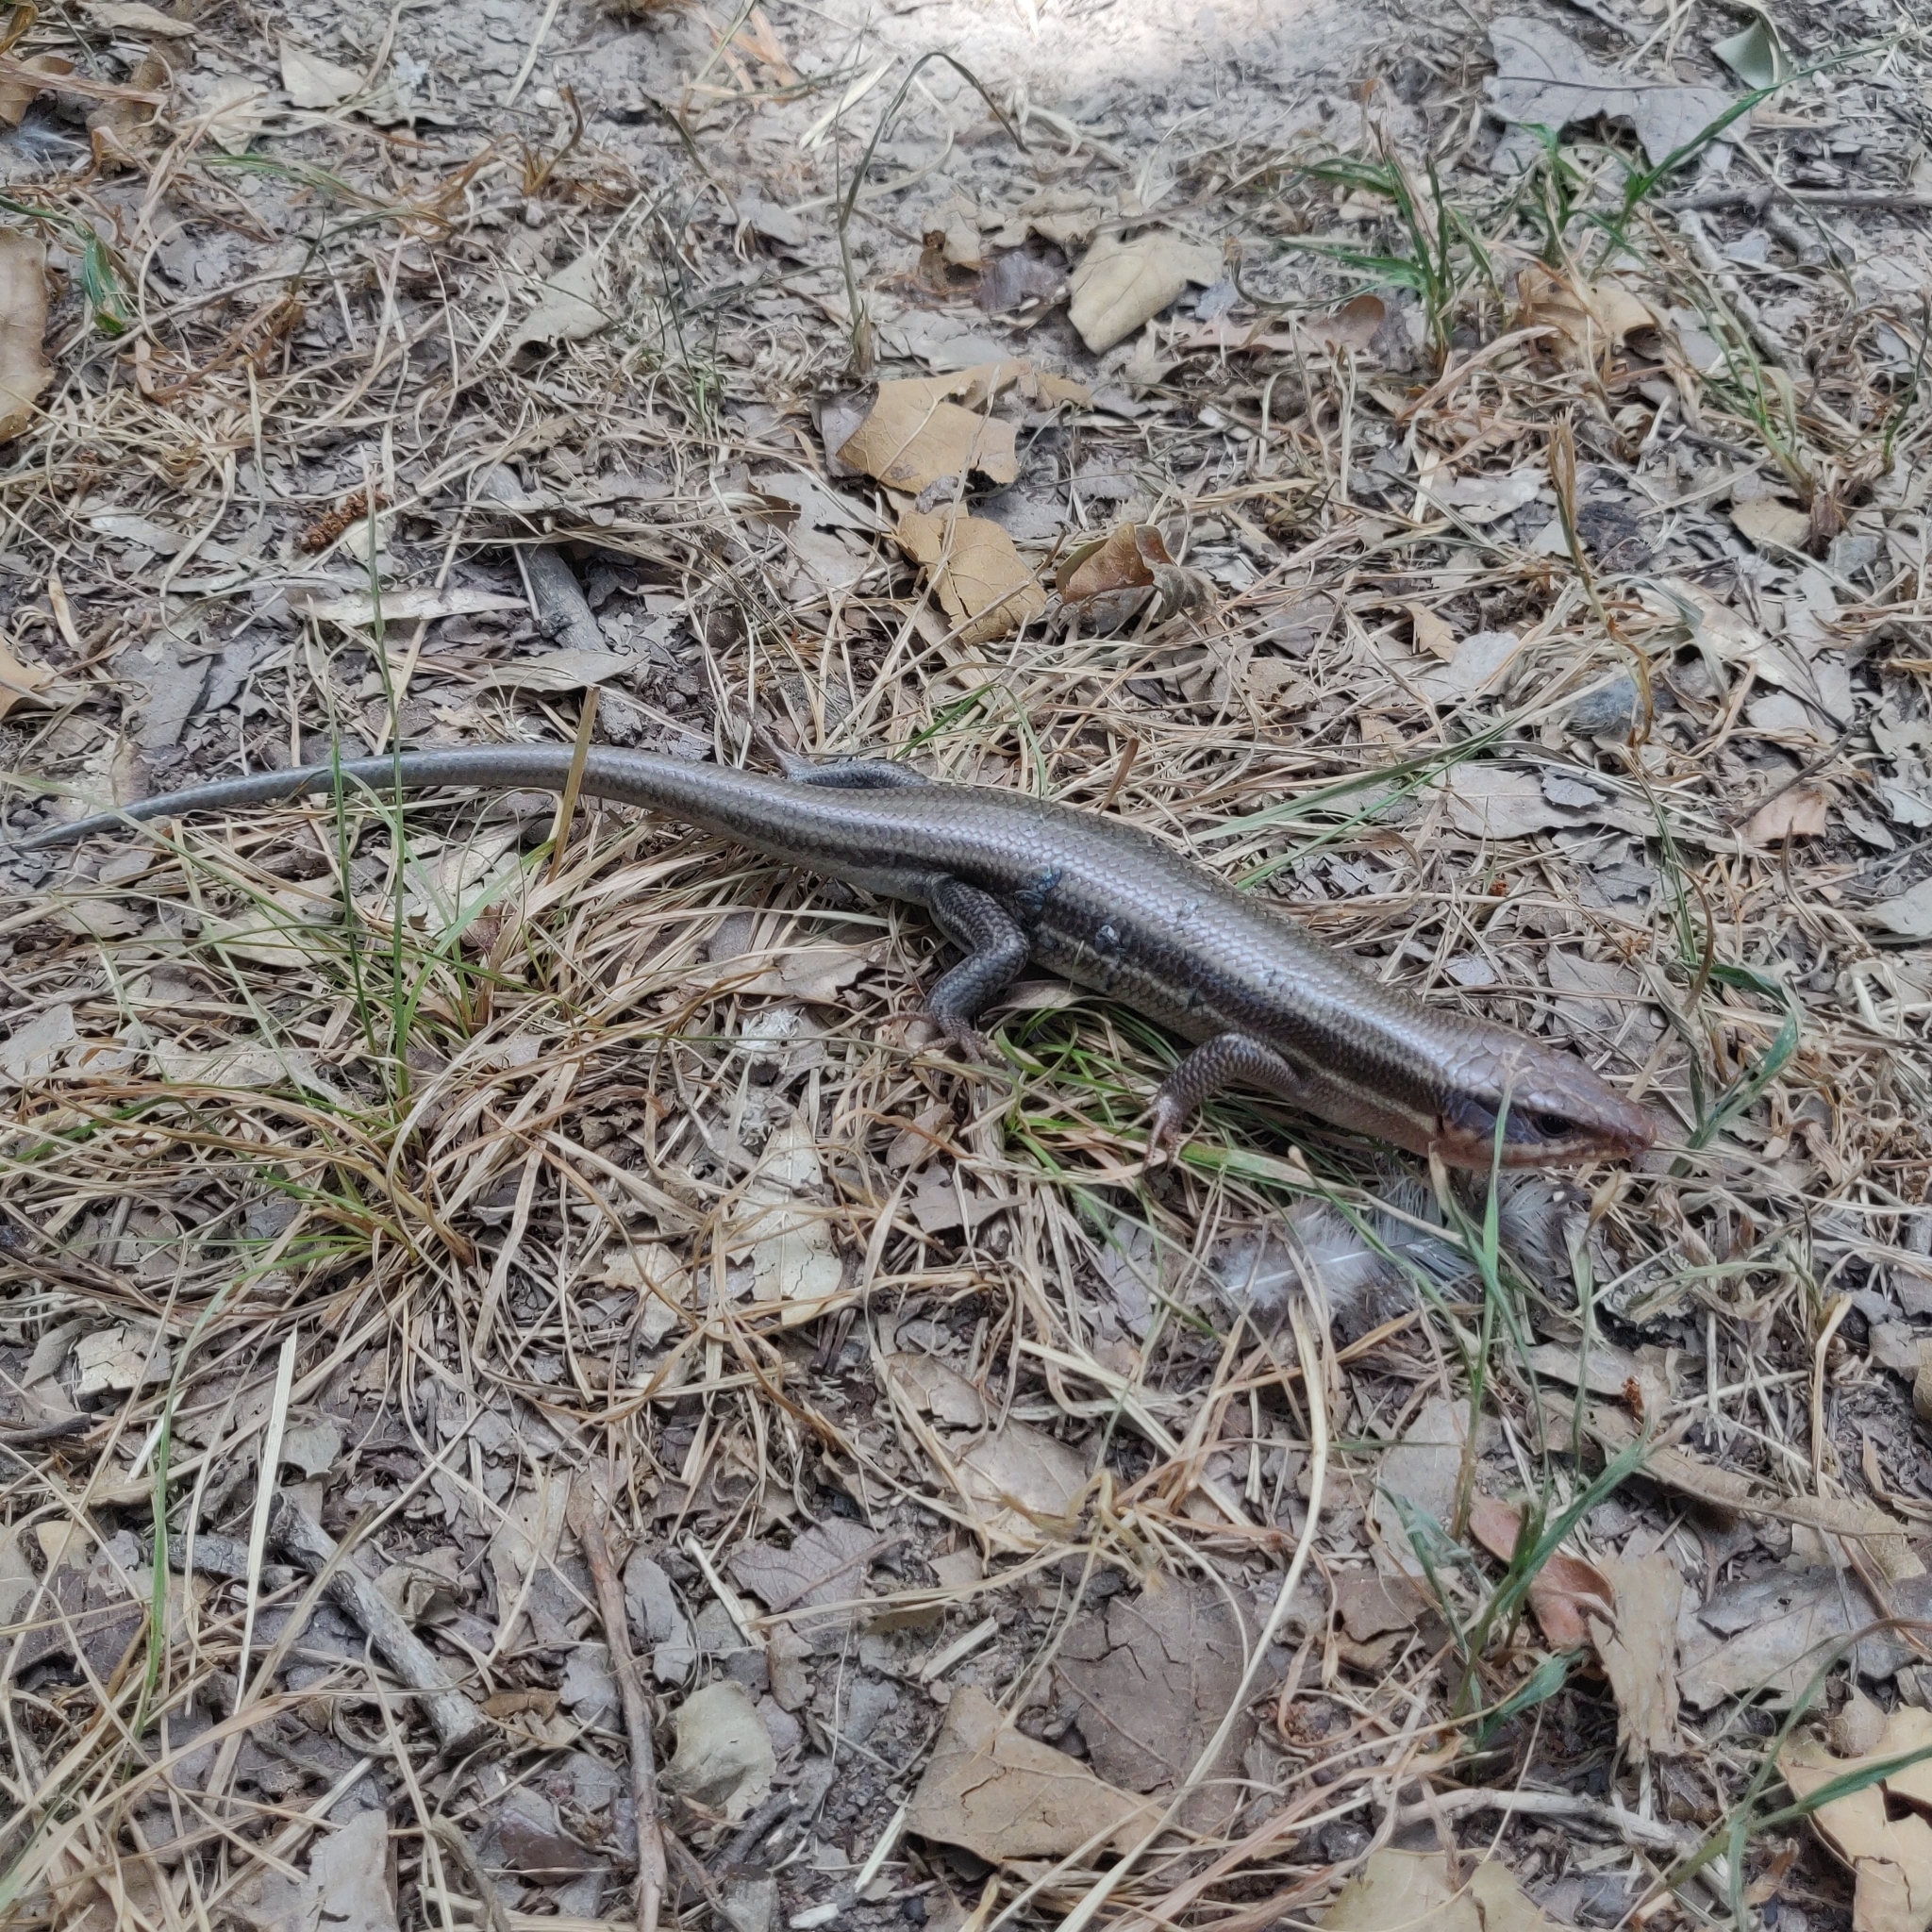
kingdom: Animalia
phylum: Chordata
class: Squamata
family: Scincidae
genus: Plestiodon
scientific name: Plestiodon
